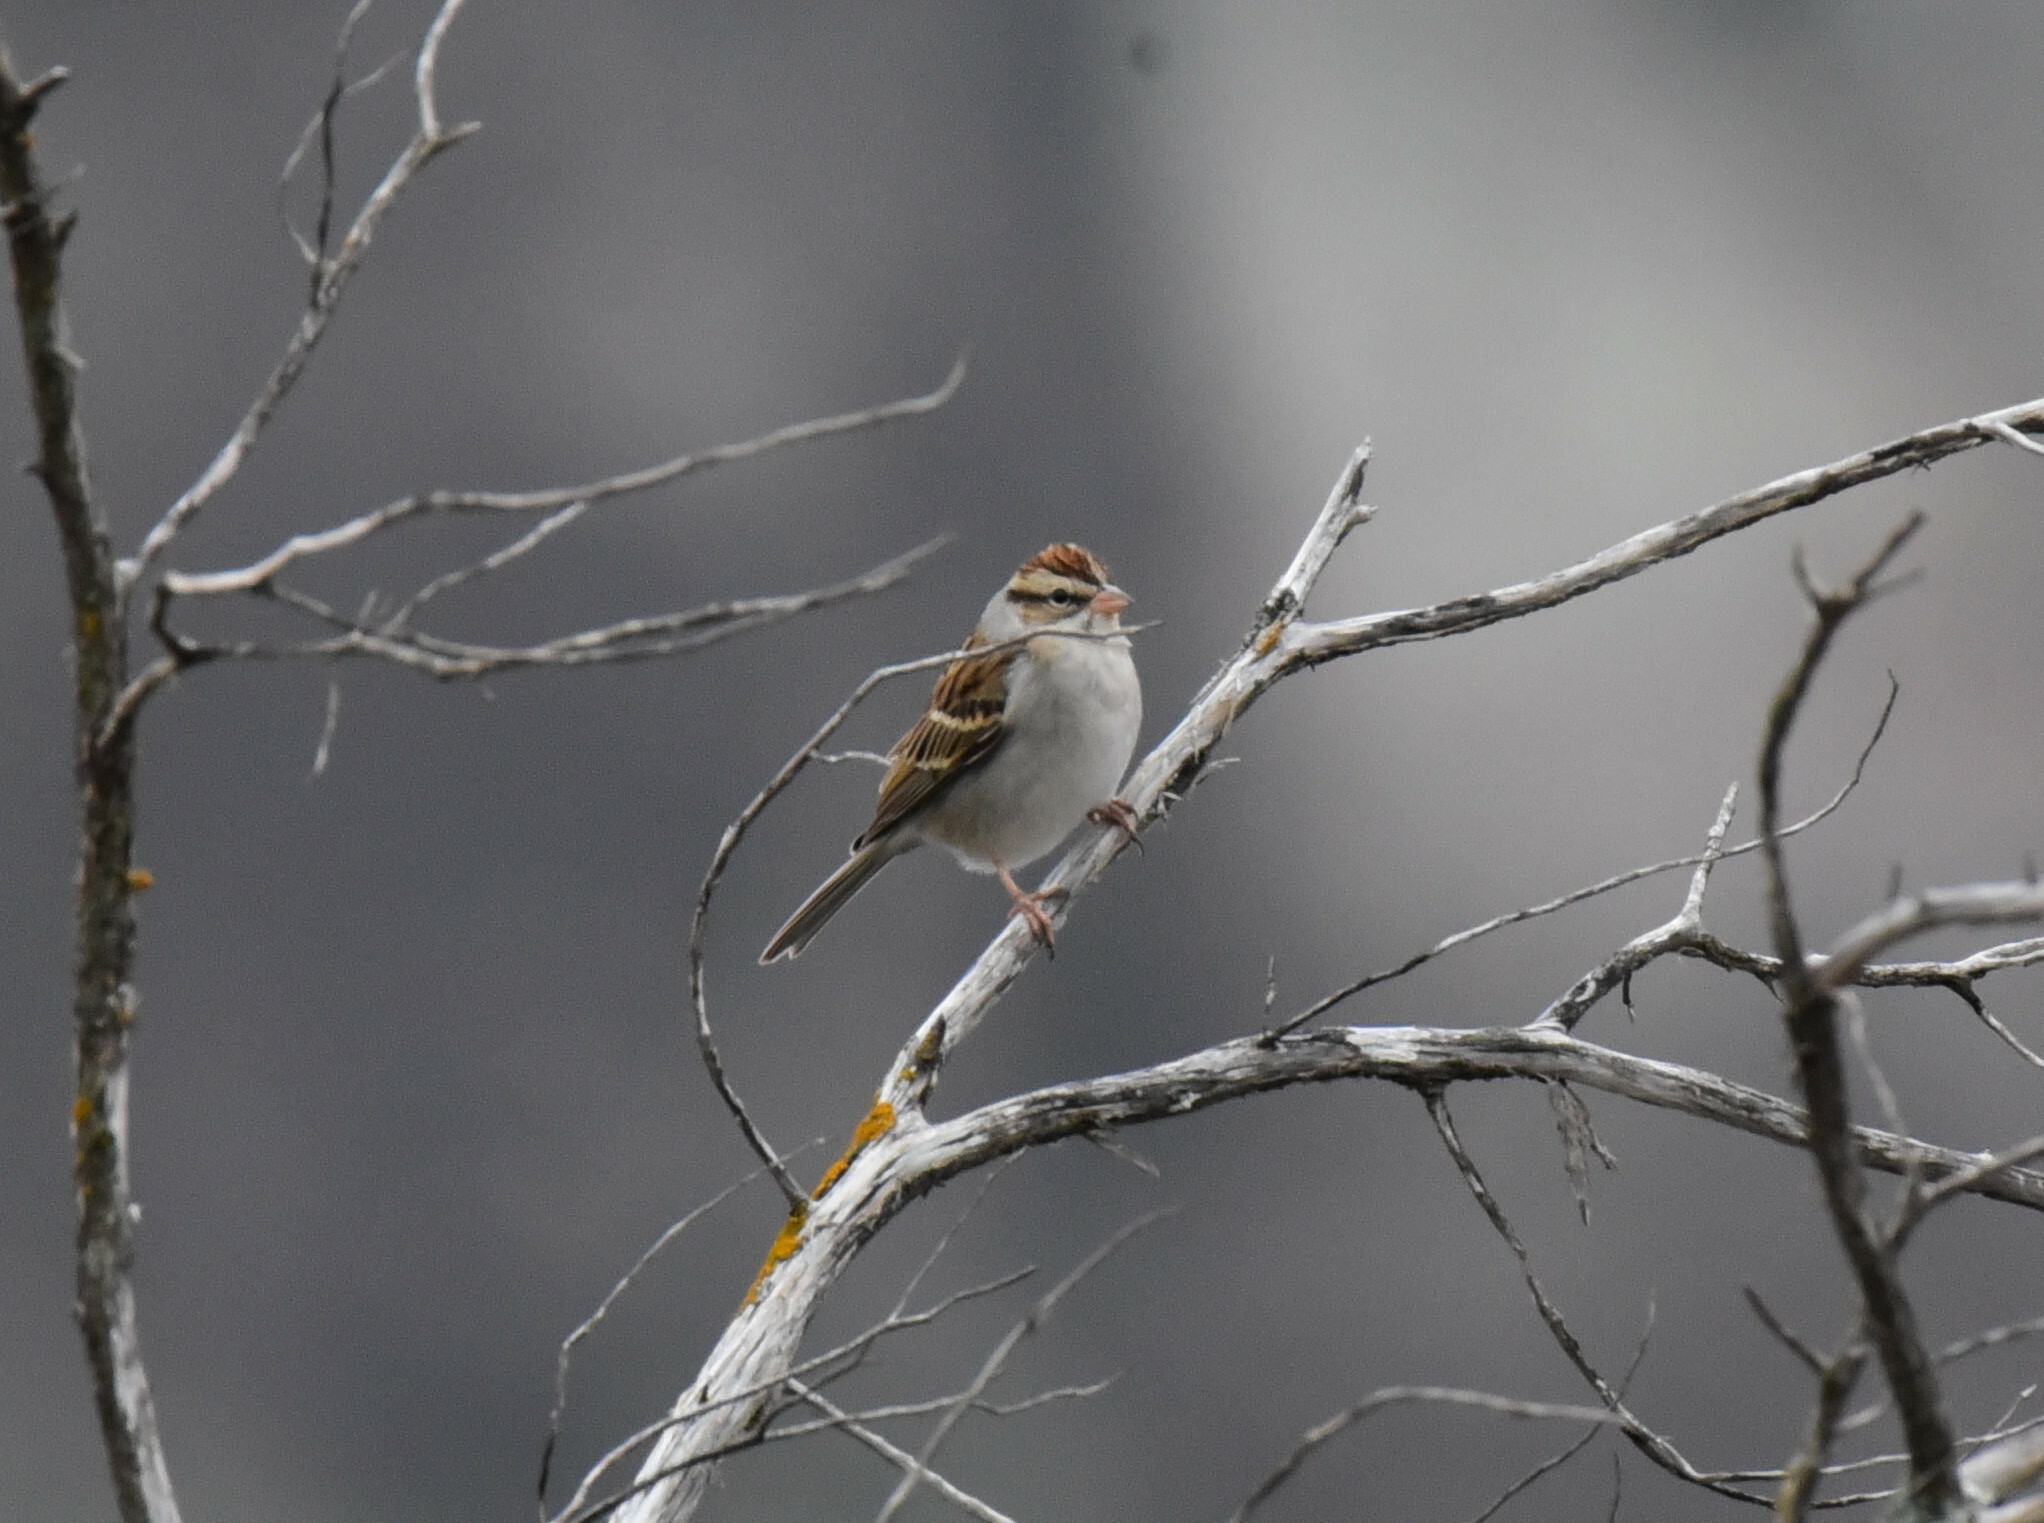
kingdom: Animalia
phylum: Chordata
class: Aves
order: Passeriformes
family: Passerellidae
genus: Spizella
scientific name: Spizella passerina
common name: Chipping sparrow
